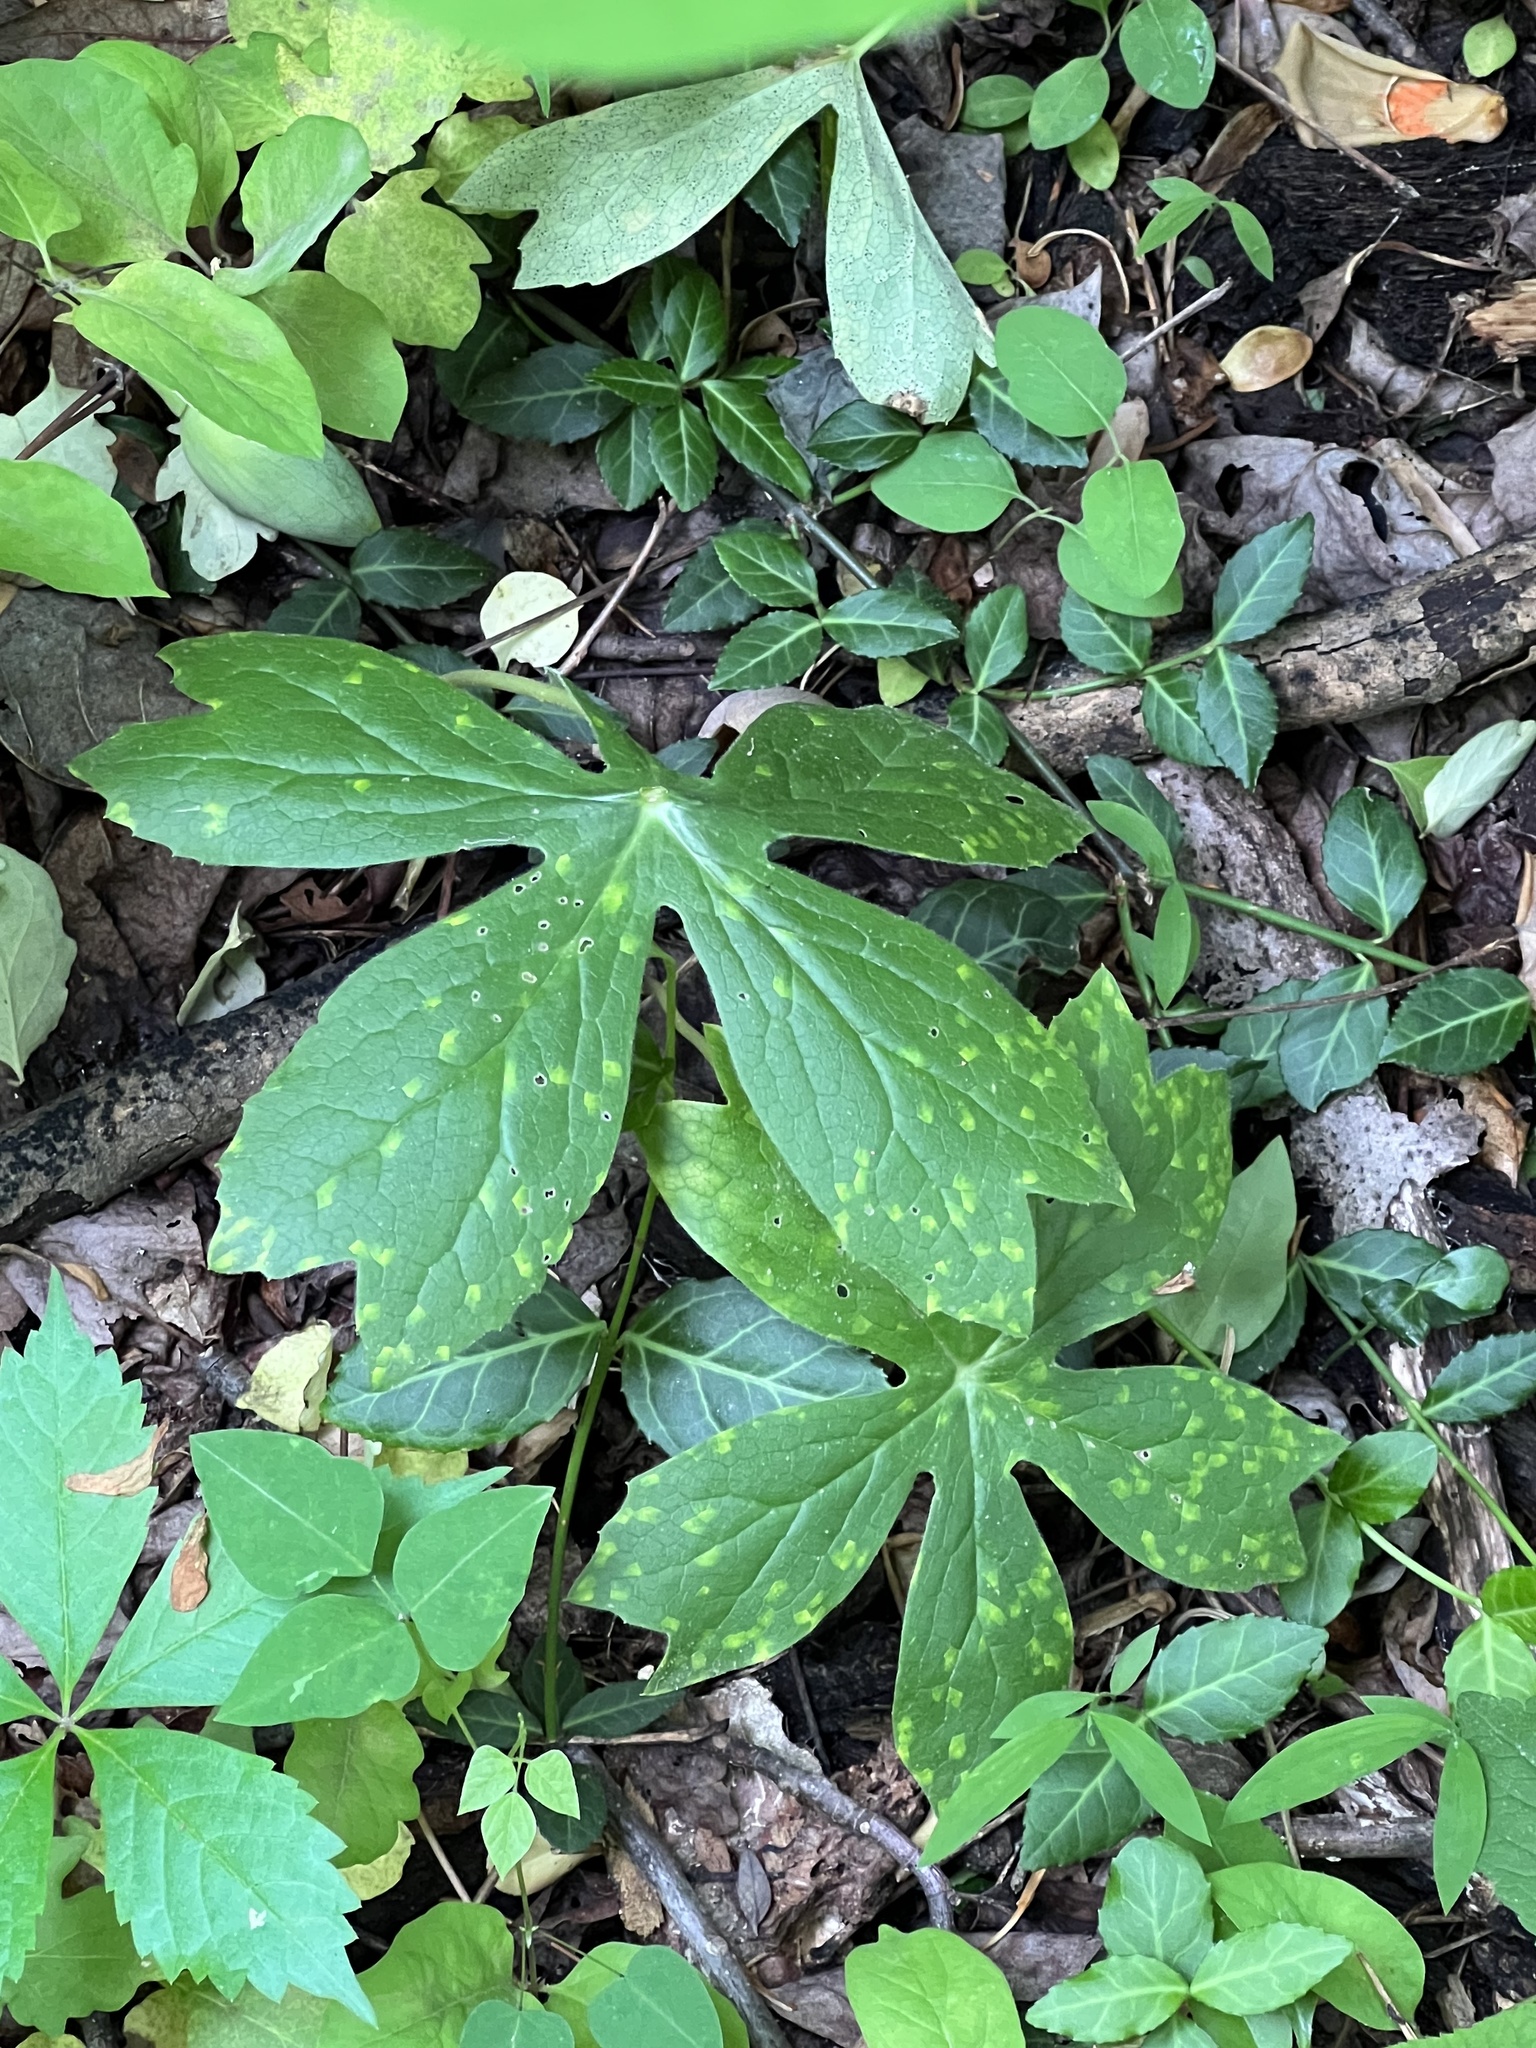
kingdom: Fungi
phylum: Basidiomycota
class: Pucciniomycetes
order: Pucciniales
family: Pucciniaceae
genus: Puccinia
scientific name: Puccinia podophylli
